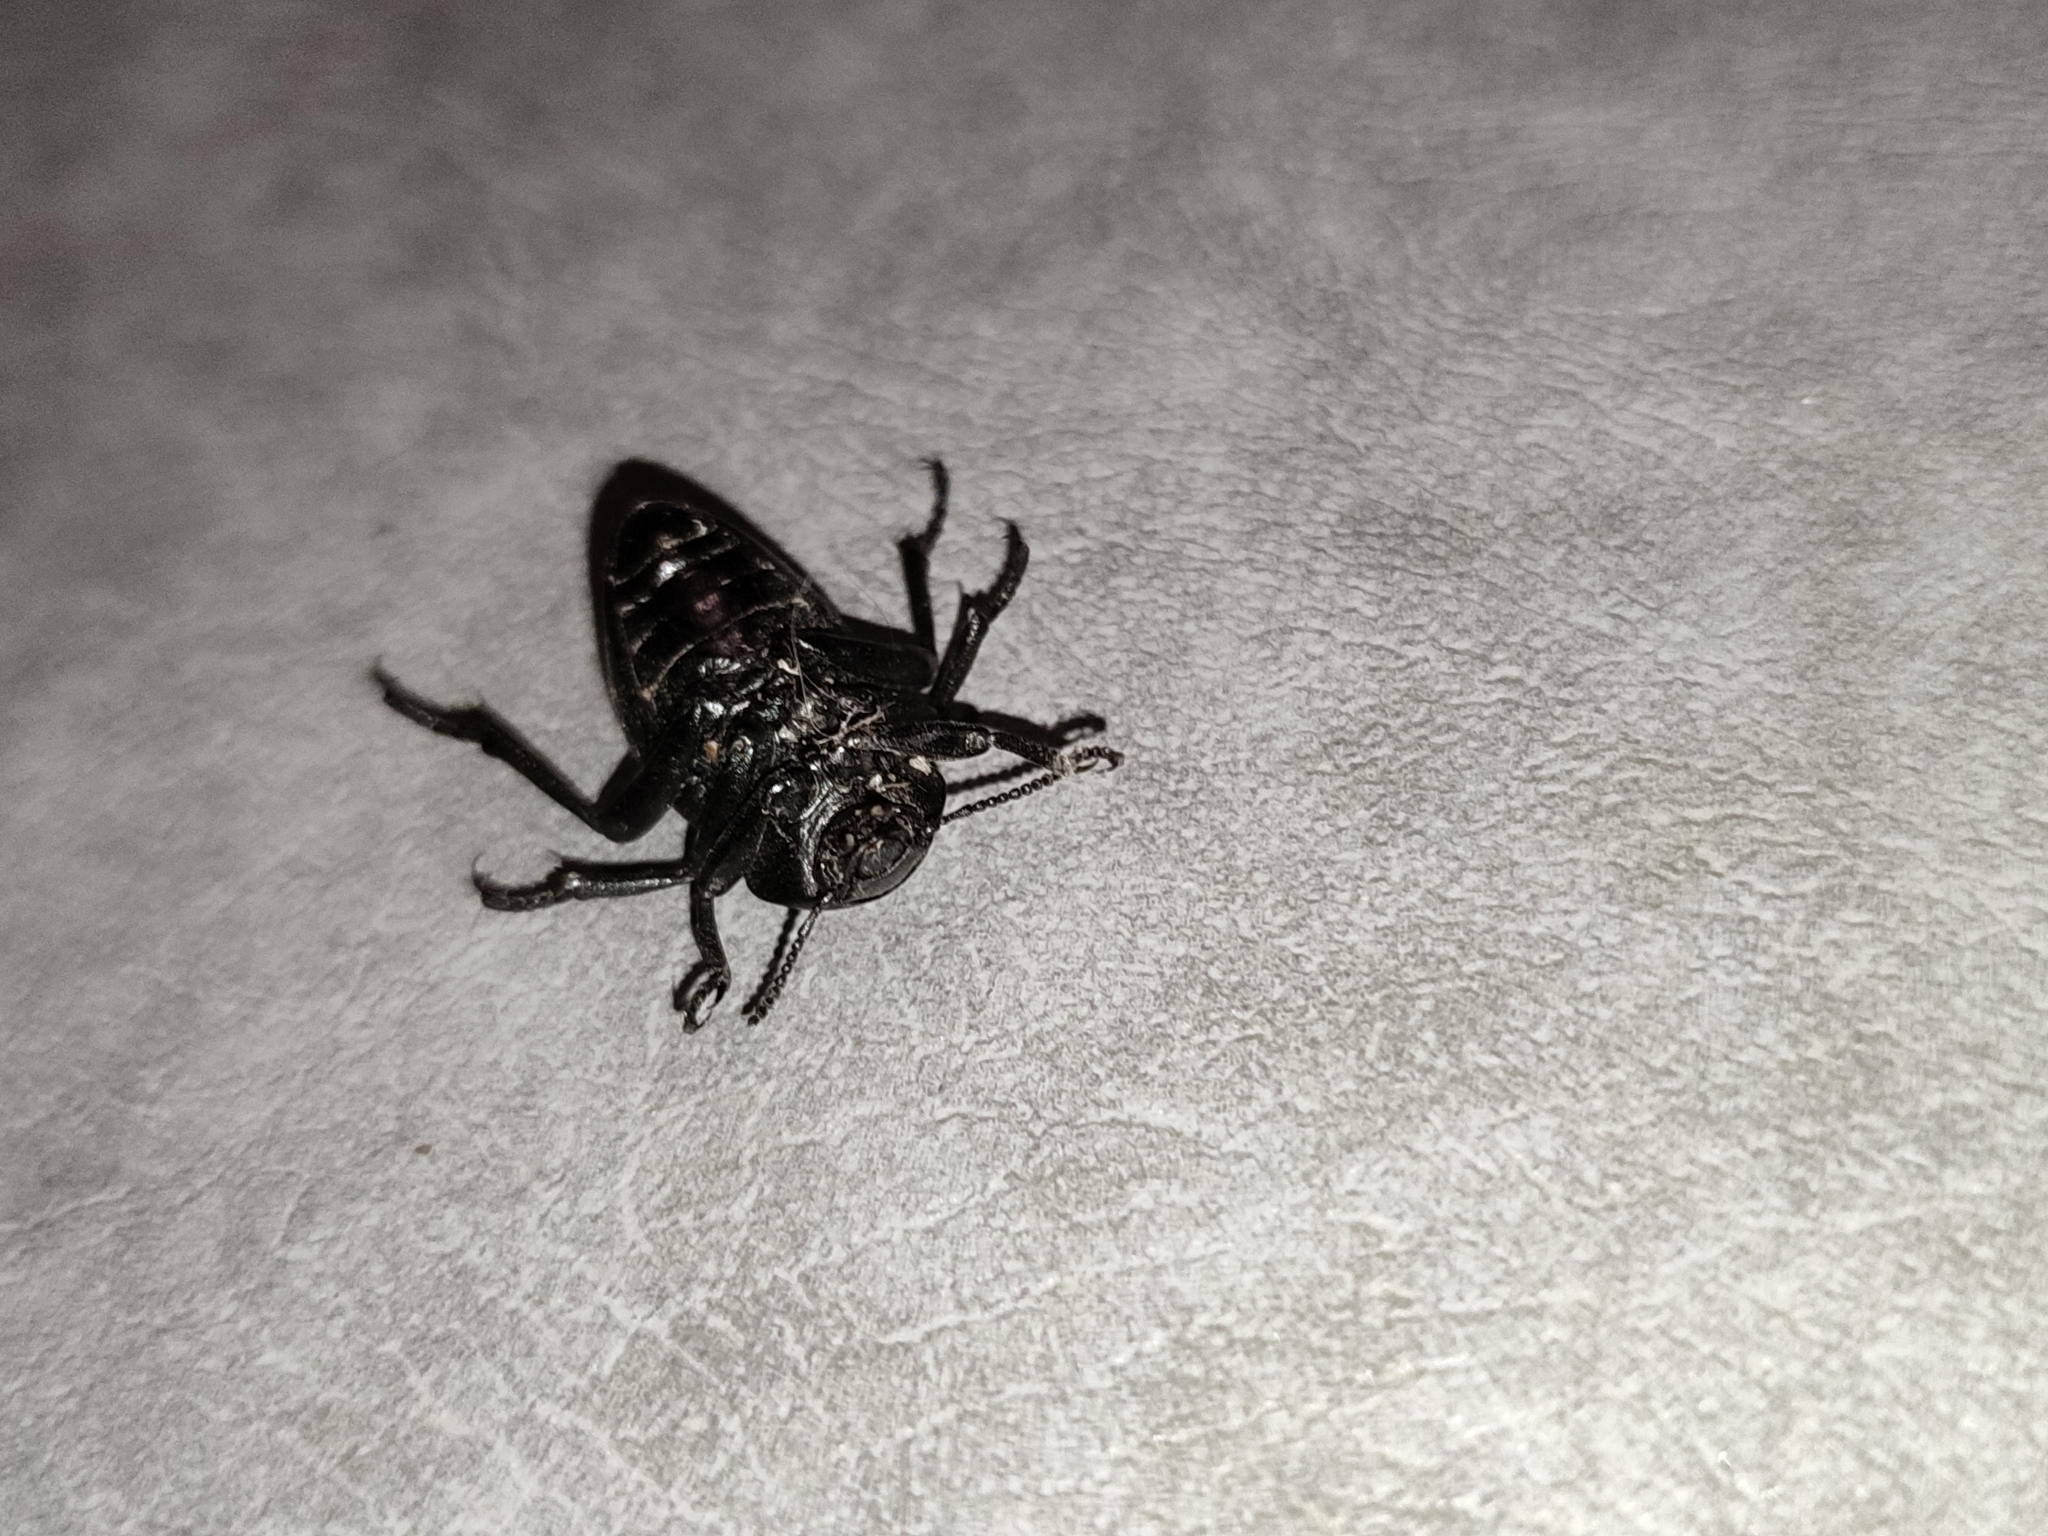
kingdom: Animalia
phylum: Arthropoda
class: Insecta
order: Coleoptera
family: Tenebrionidae
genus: Gnaptor
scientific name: Gnaptor spinimanus
